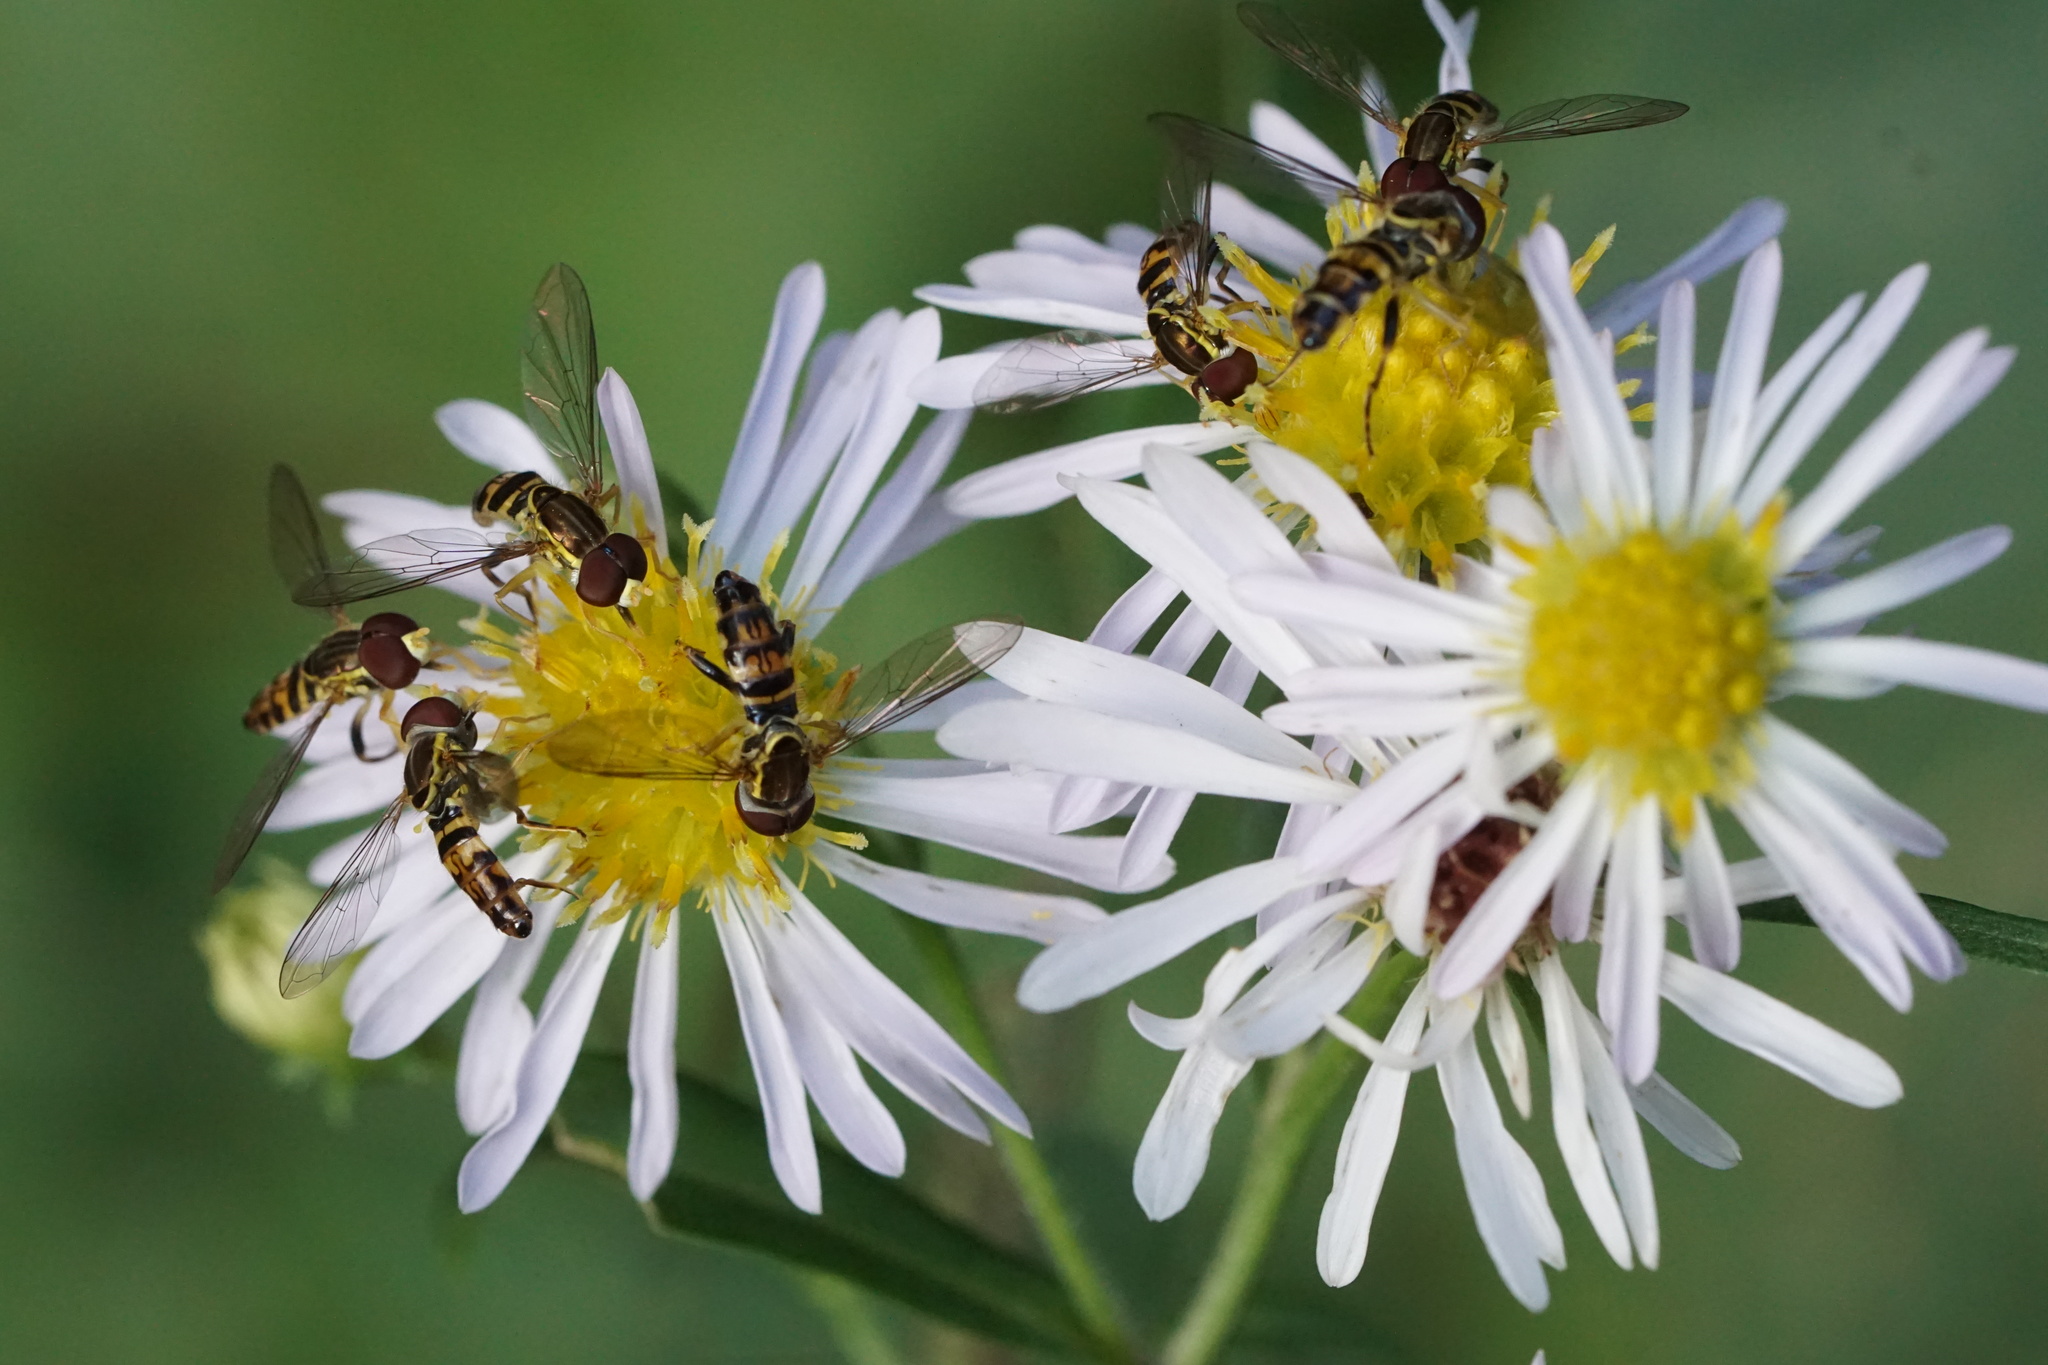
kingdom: Animalia
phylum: Arthropoda
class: Insecta
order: Diptera
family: Syrphidae
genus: Toxomerus
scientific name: Toxomerus geminatus
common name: Eastern calligrapher
